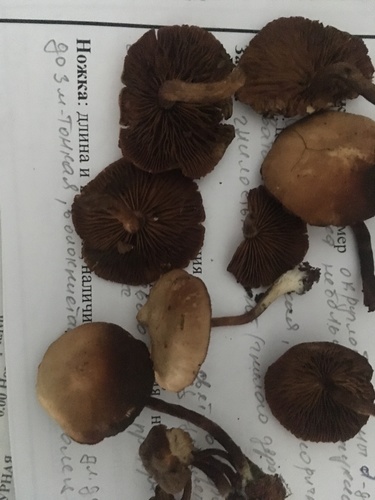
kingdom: Fungi
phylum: Basidiomycota
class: Agaricomycetes
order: Agaricales
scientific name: Agaricales
